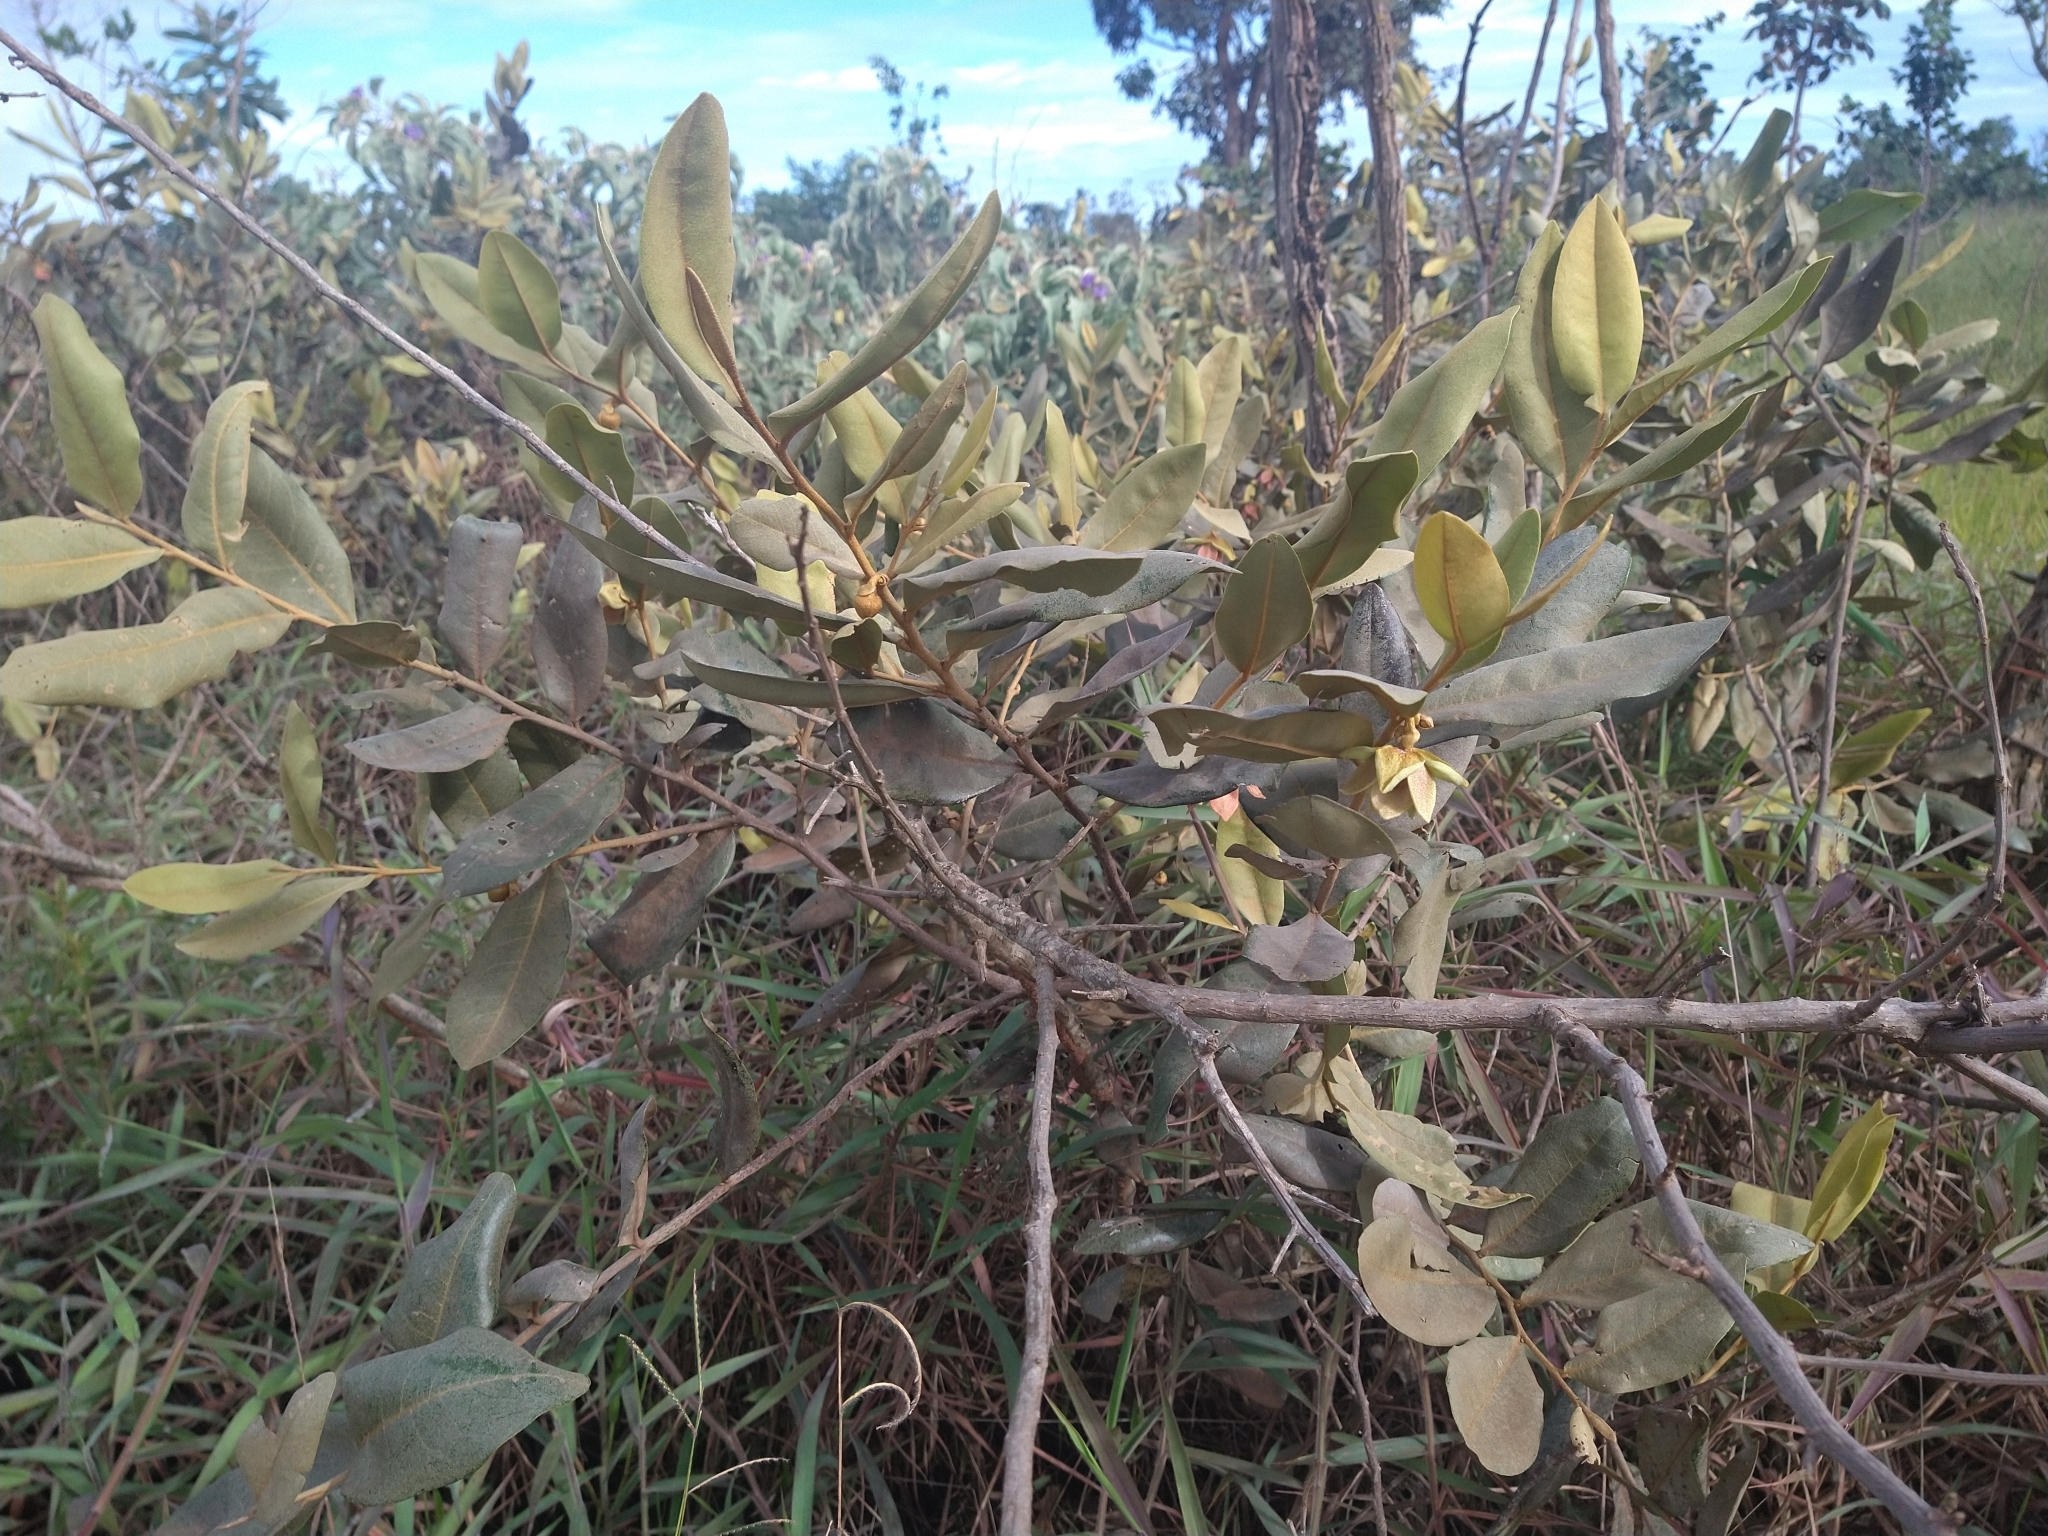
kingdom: Plantae
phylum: Tracheophyta
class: Magnoliopsida
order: Magnoliales
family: Annonaceae
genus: Duguetia
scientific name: Duguetia furfuracea
